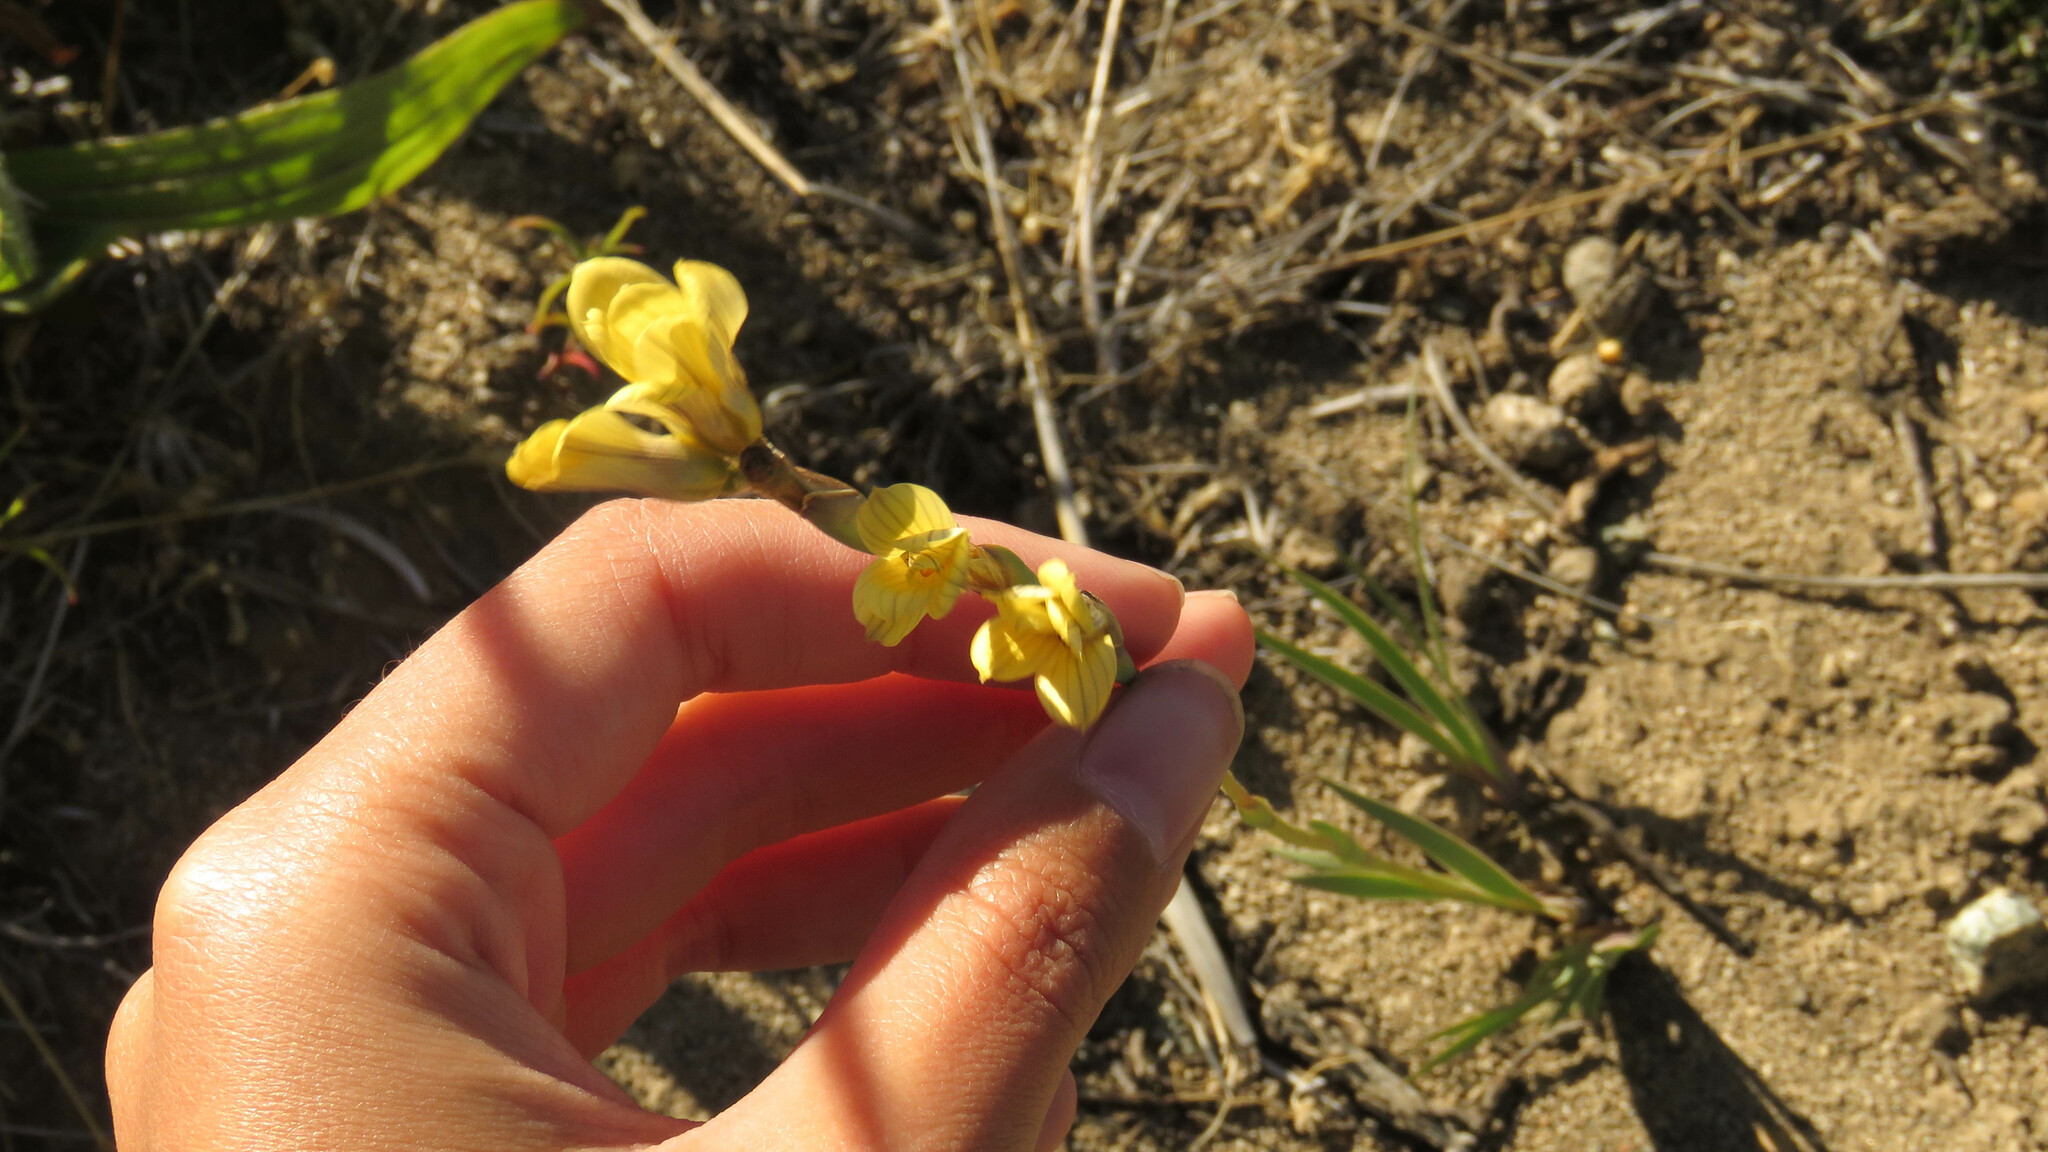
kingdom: Plantae
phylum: Tracheophyta
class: Liliopsida
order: Asparagales
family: Iridaceae
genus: Sisyrinchium
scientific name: Sisyrinchium arenarium
